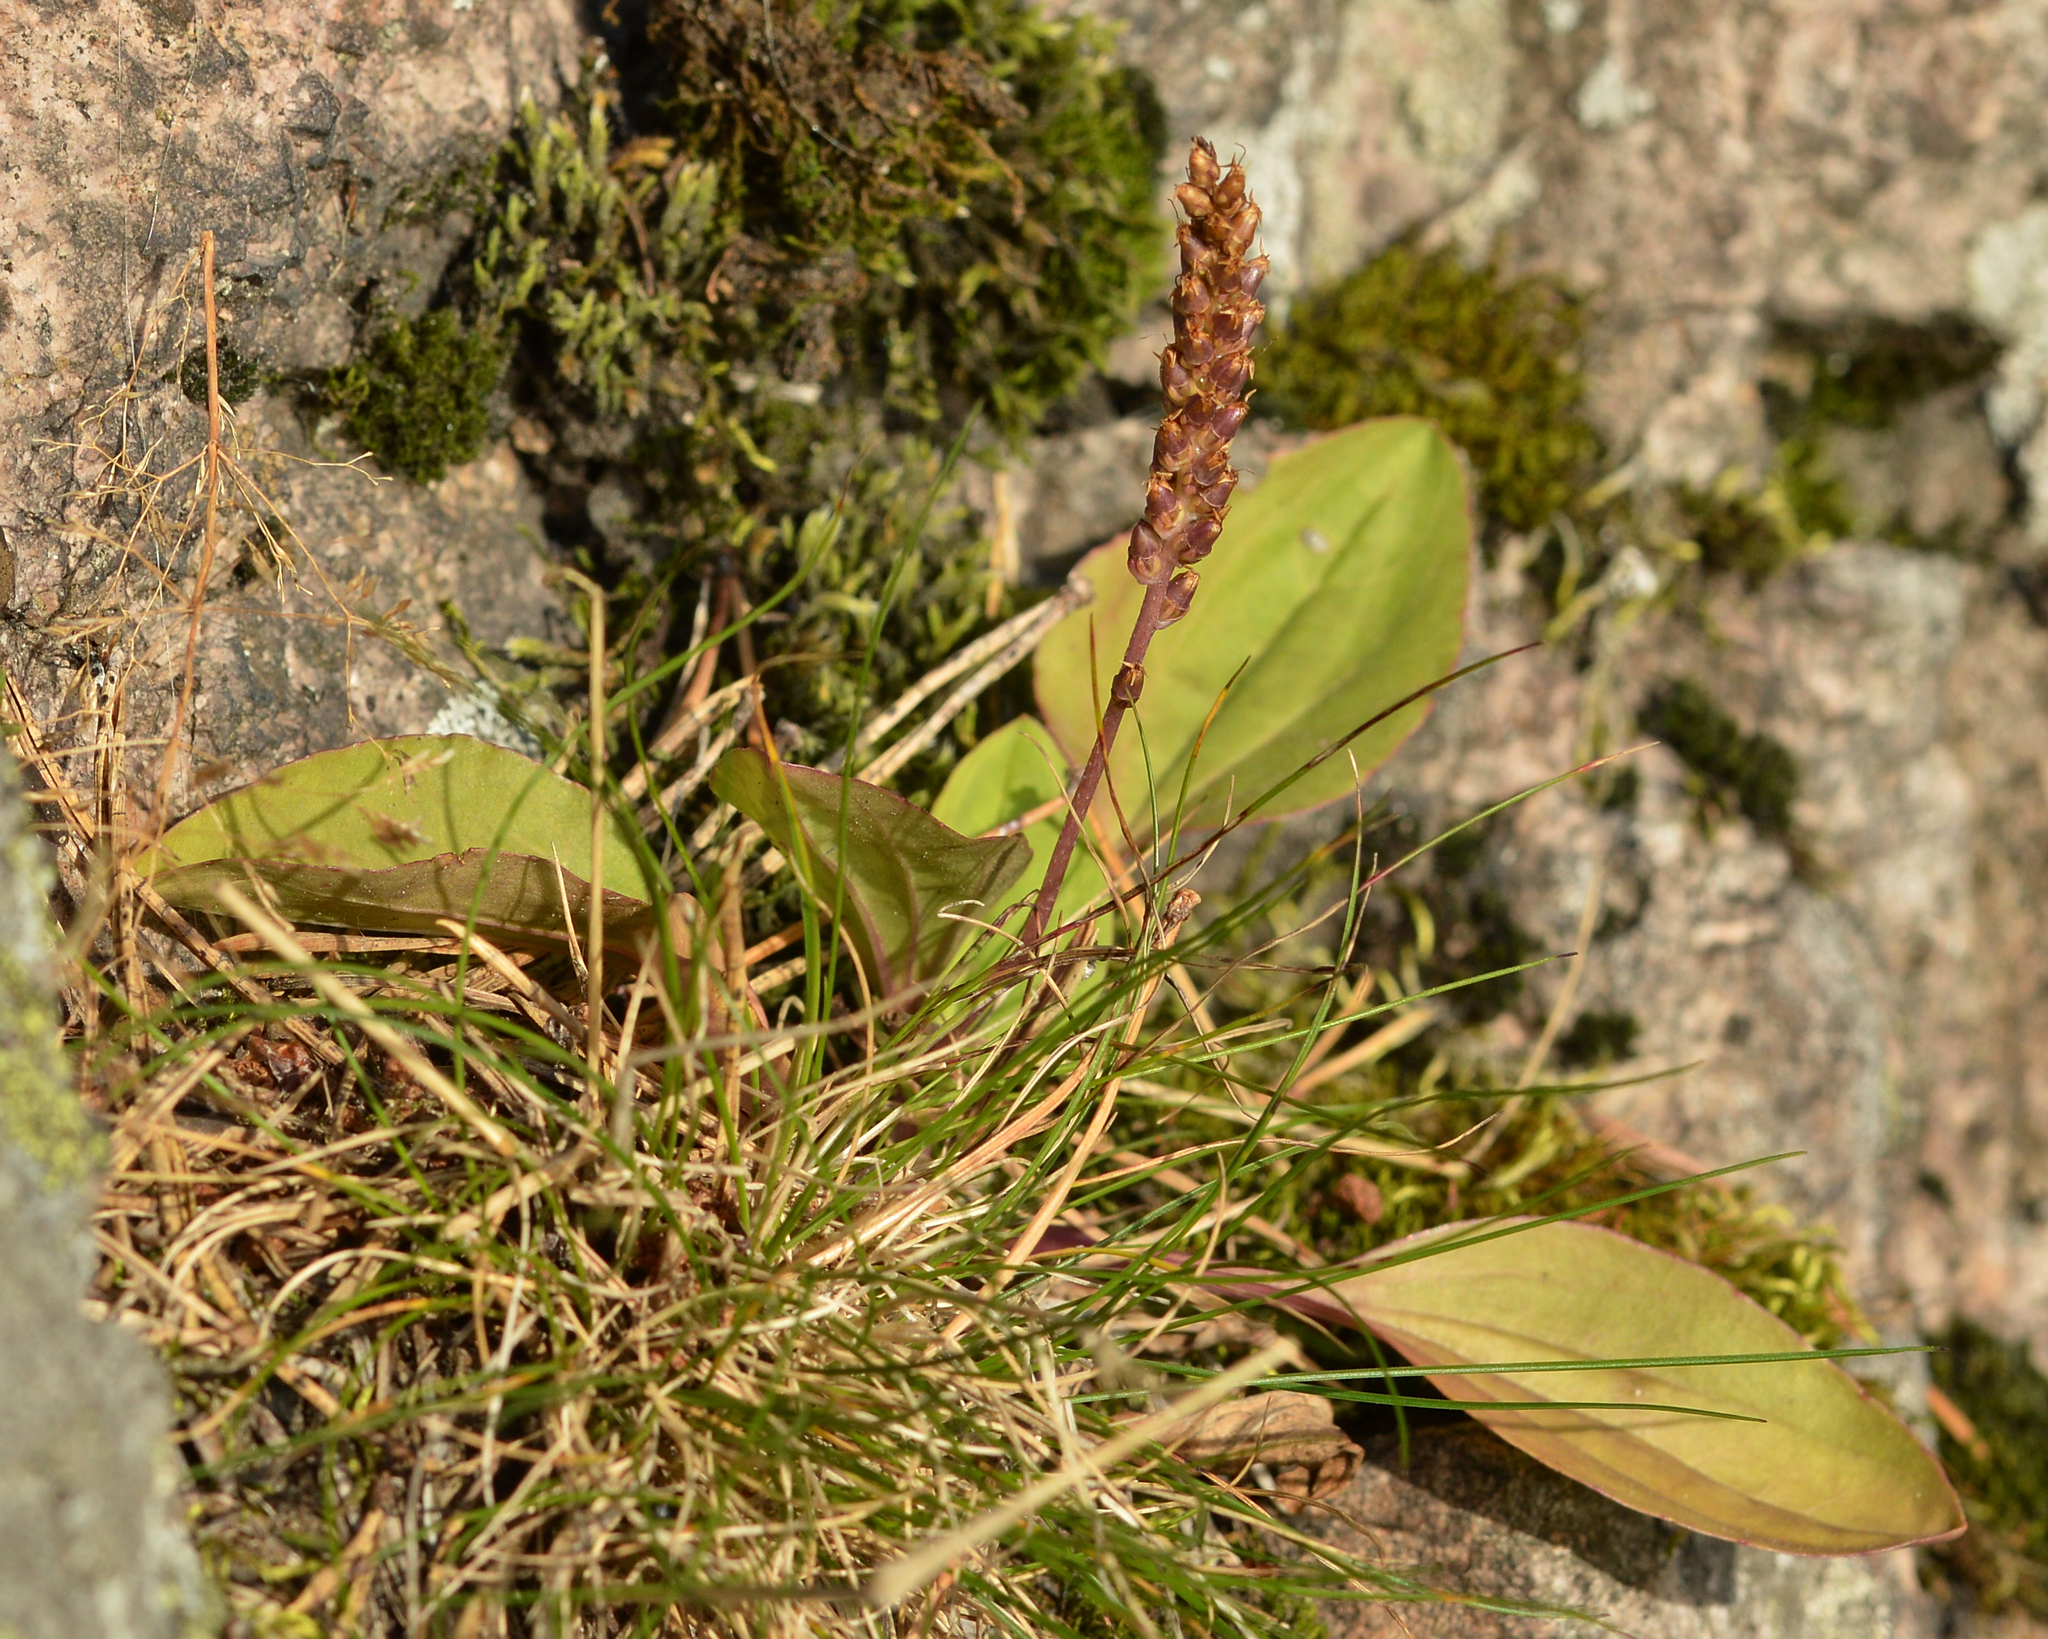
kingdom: Plantae
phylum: Tracheophyta
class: Magnoliopsida
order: Lamiales
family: Plantaginaceae
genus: Plantago
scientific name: Plantago major
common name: Common plantain
